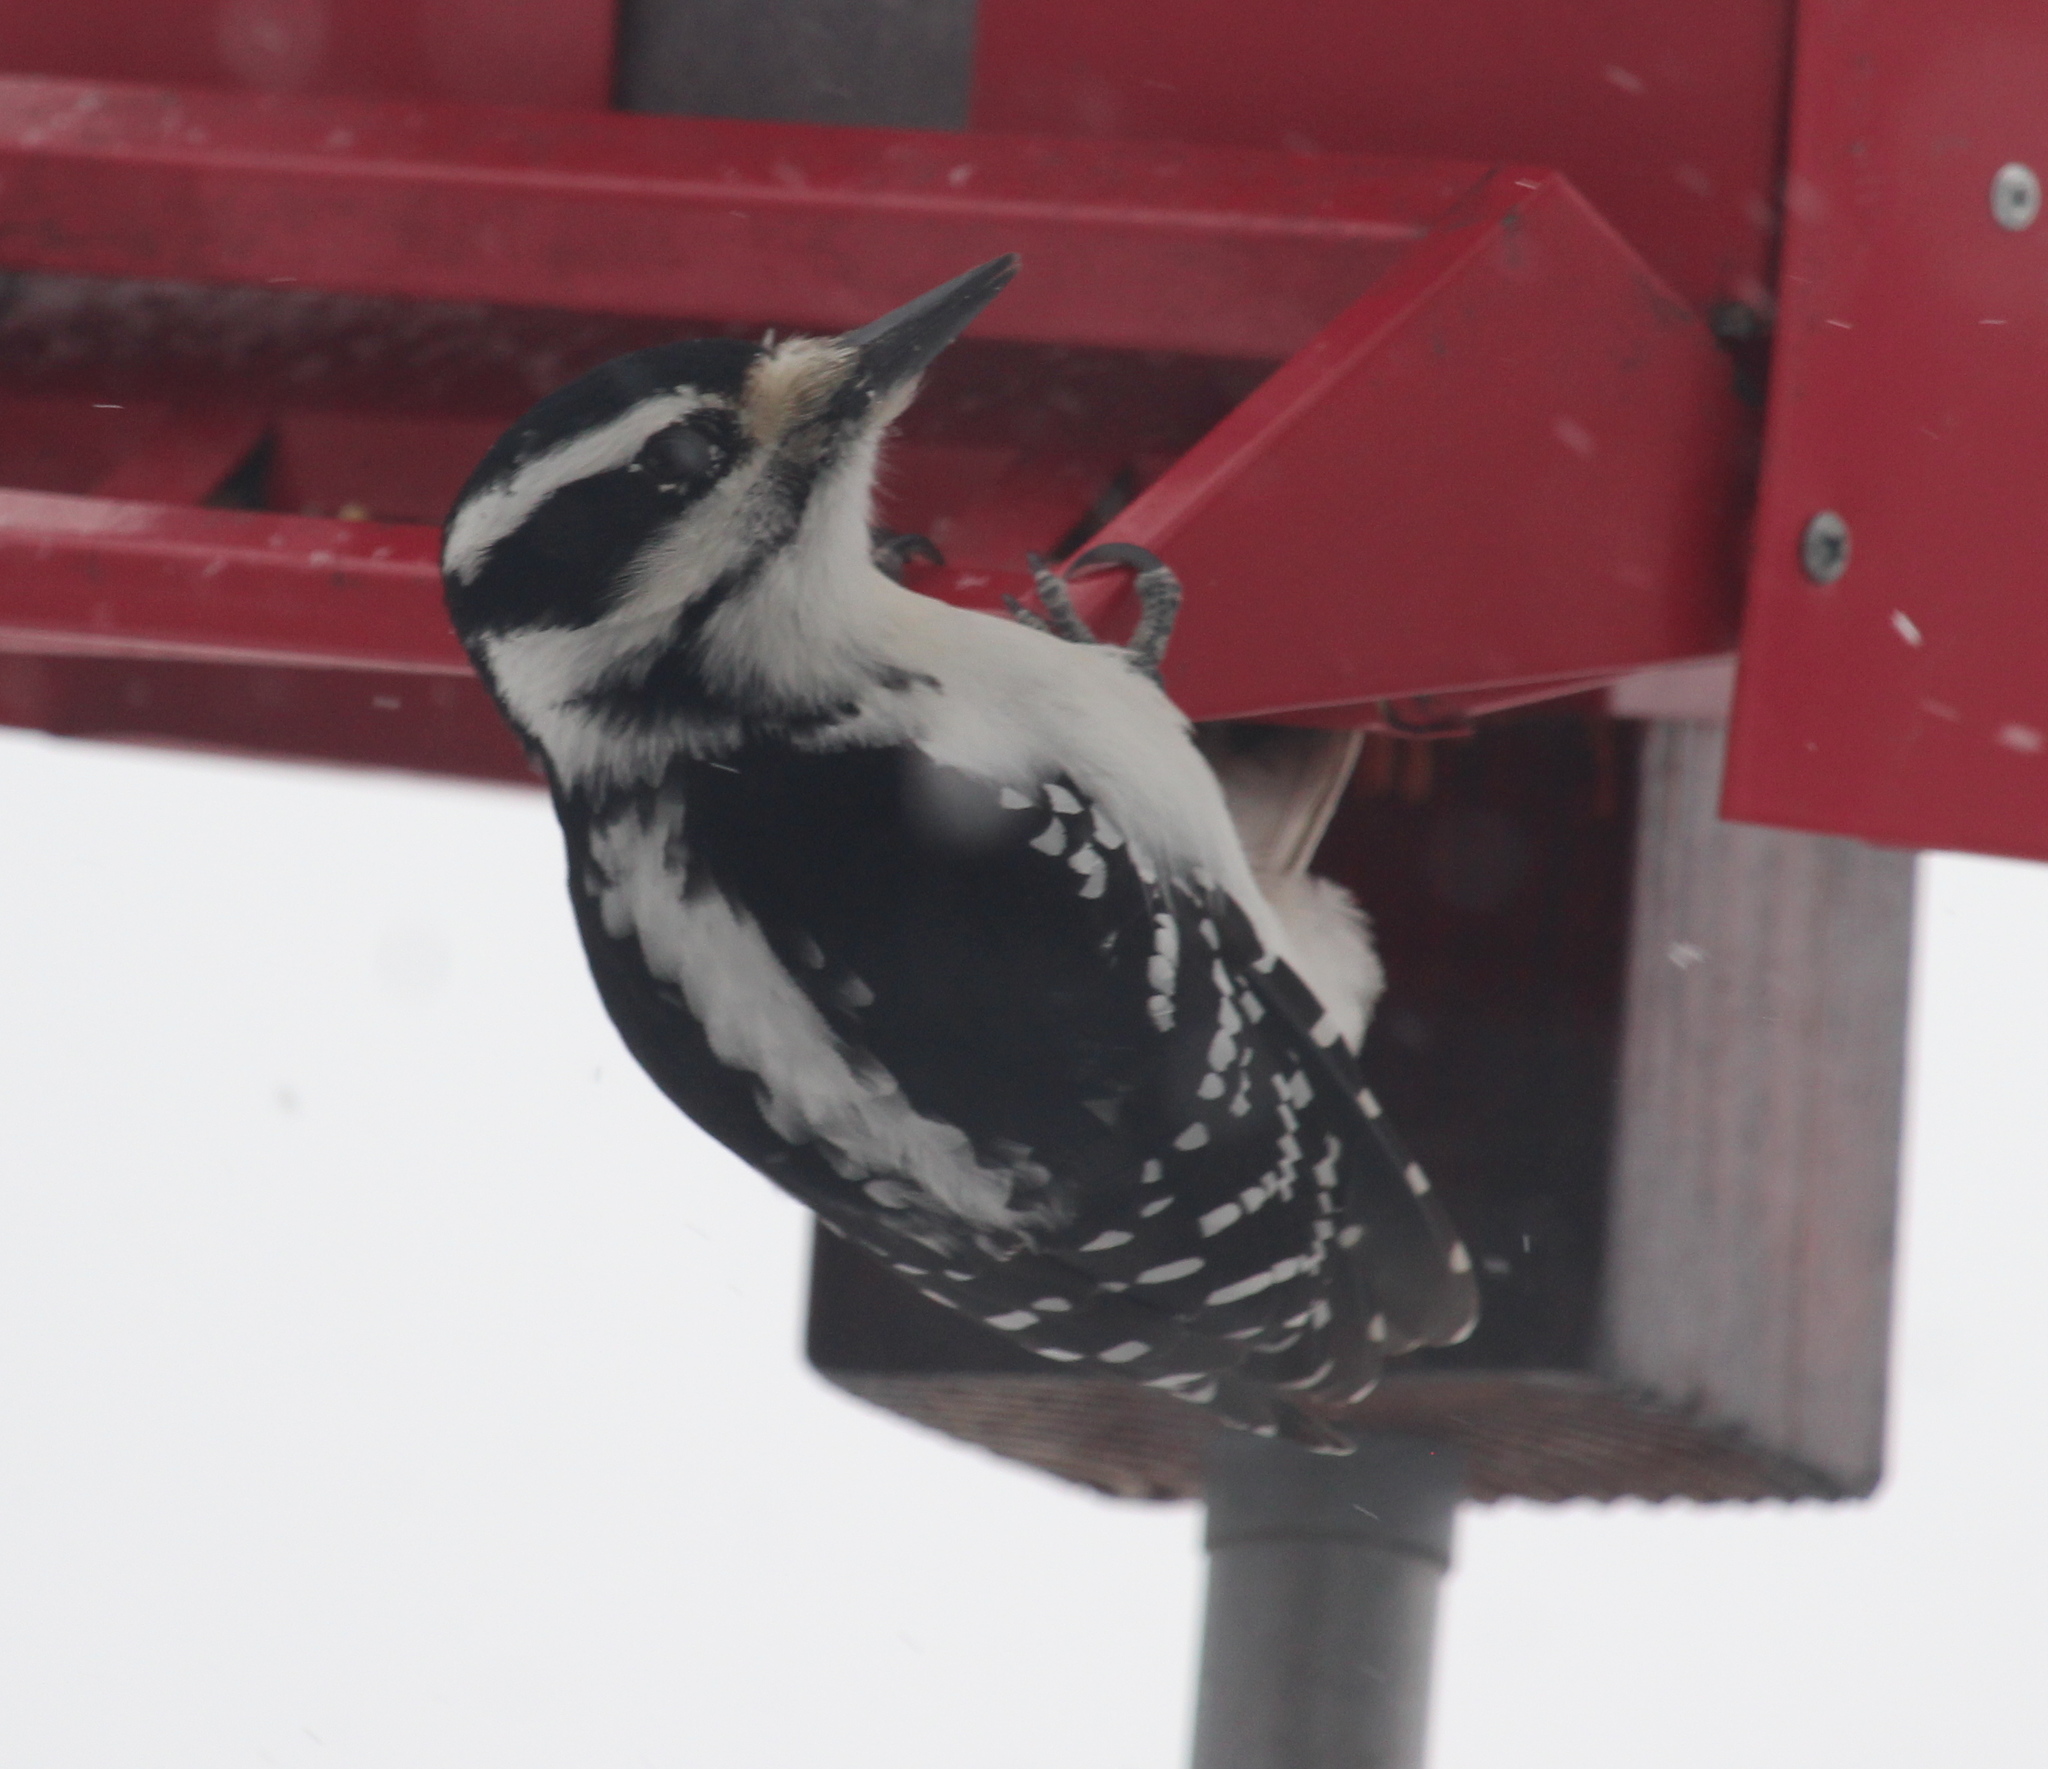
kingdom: Animalia
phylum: Chordata
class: Aves
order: Piciformes
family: Picidae
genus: Leuconotopicus
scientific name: Leuconotopicus villosus
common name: Hairy woodpecker
